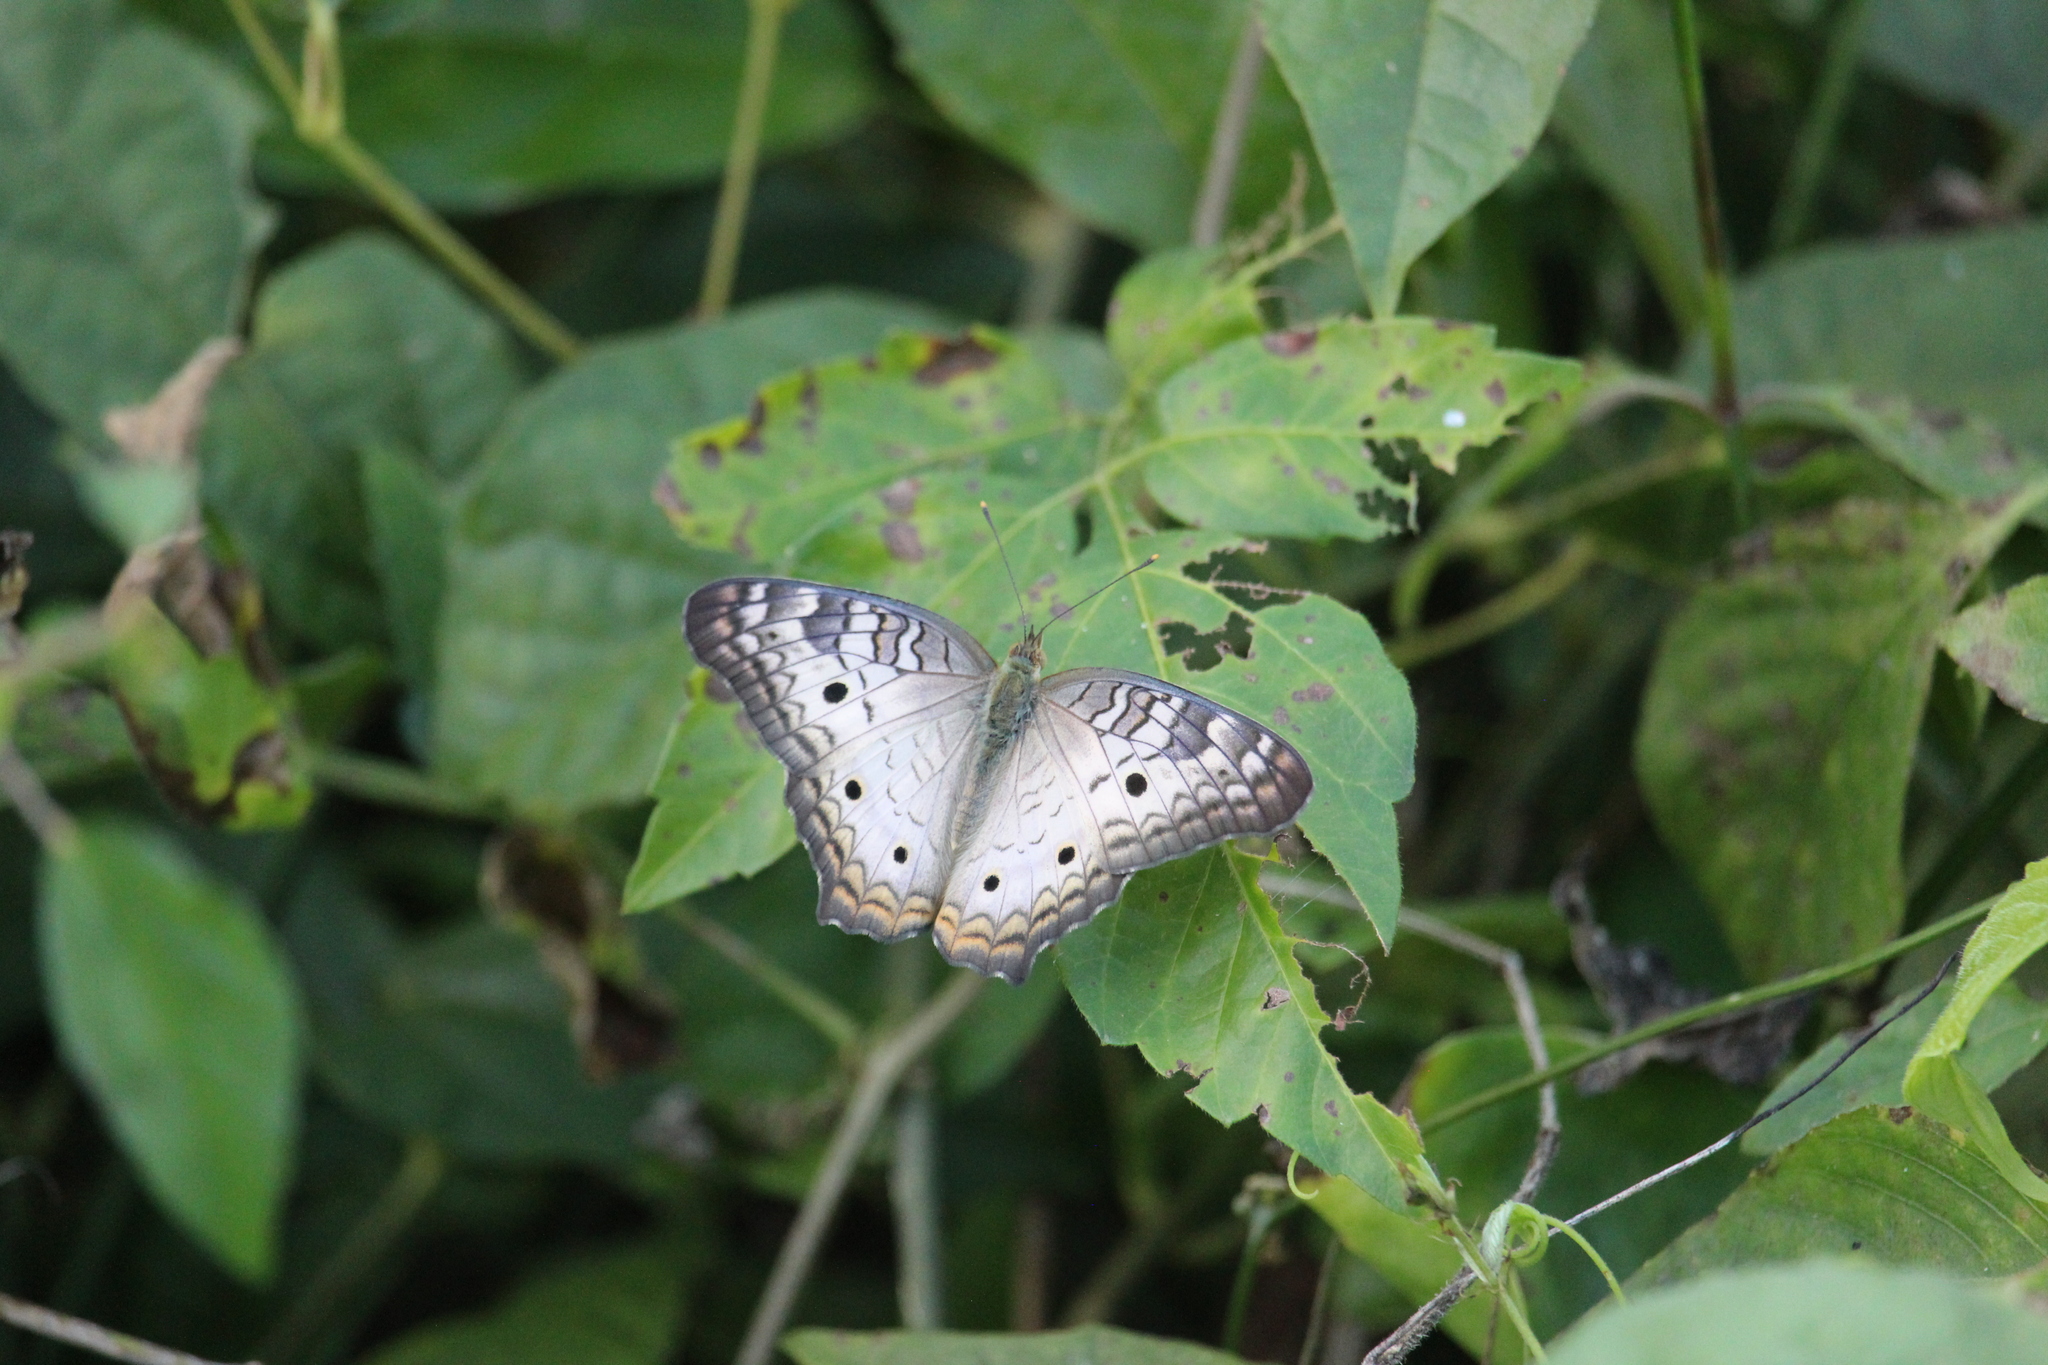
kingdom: Animalia
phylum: Arthropoda
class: Insecta
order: Lepidoptera
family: Nymphalidae
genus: Anartia
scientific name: Anartia jatrophae
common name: White peacock
